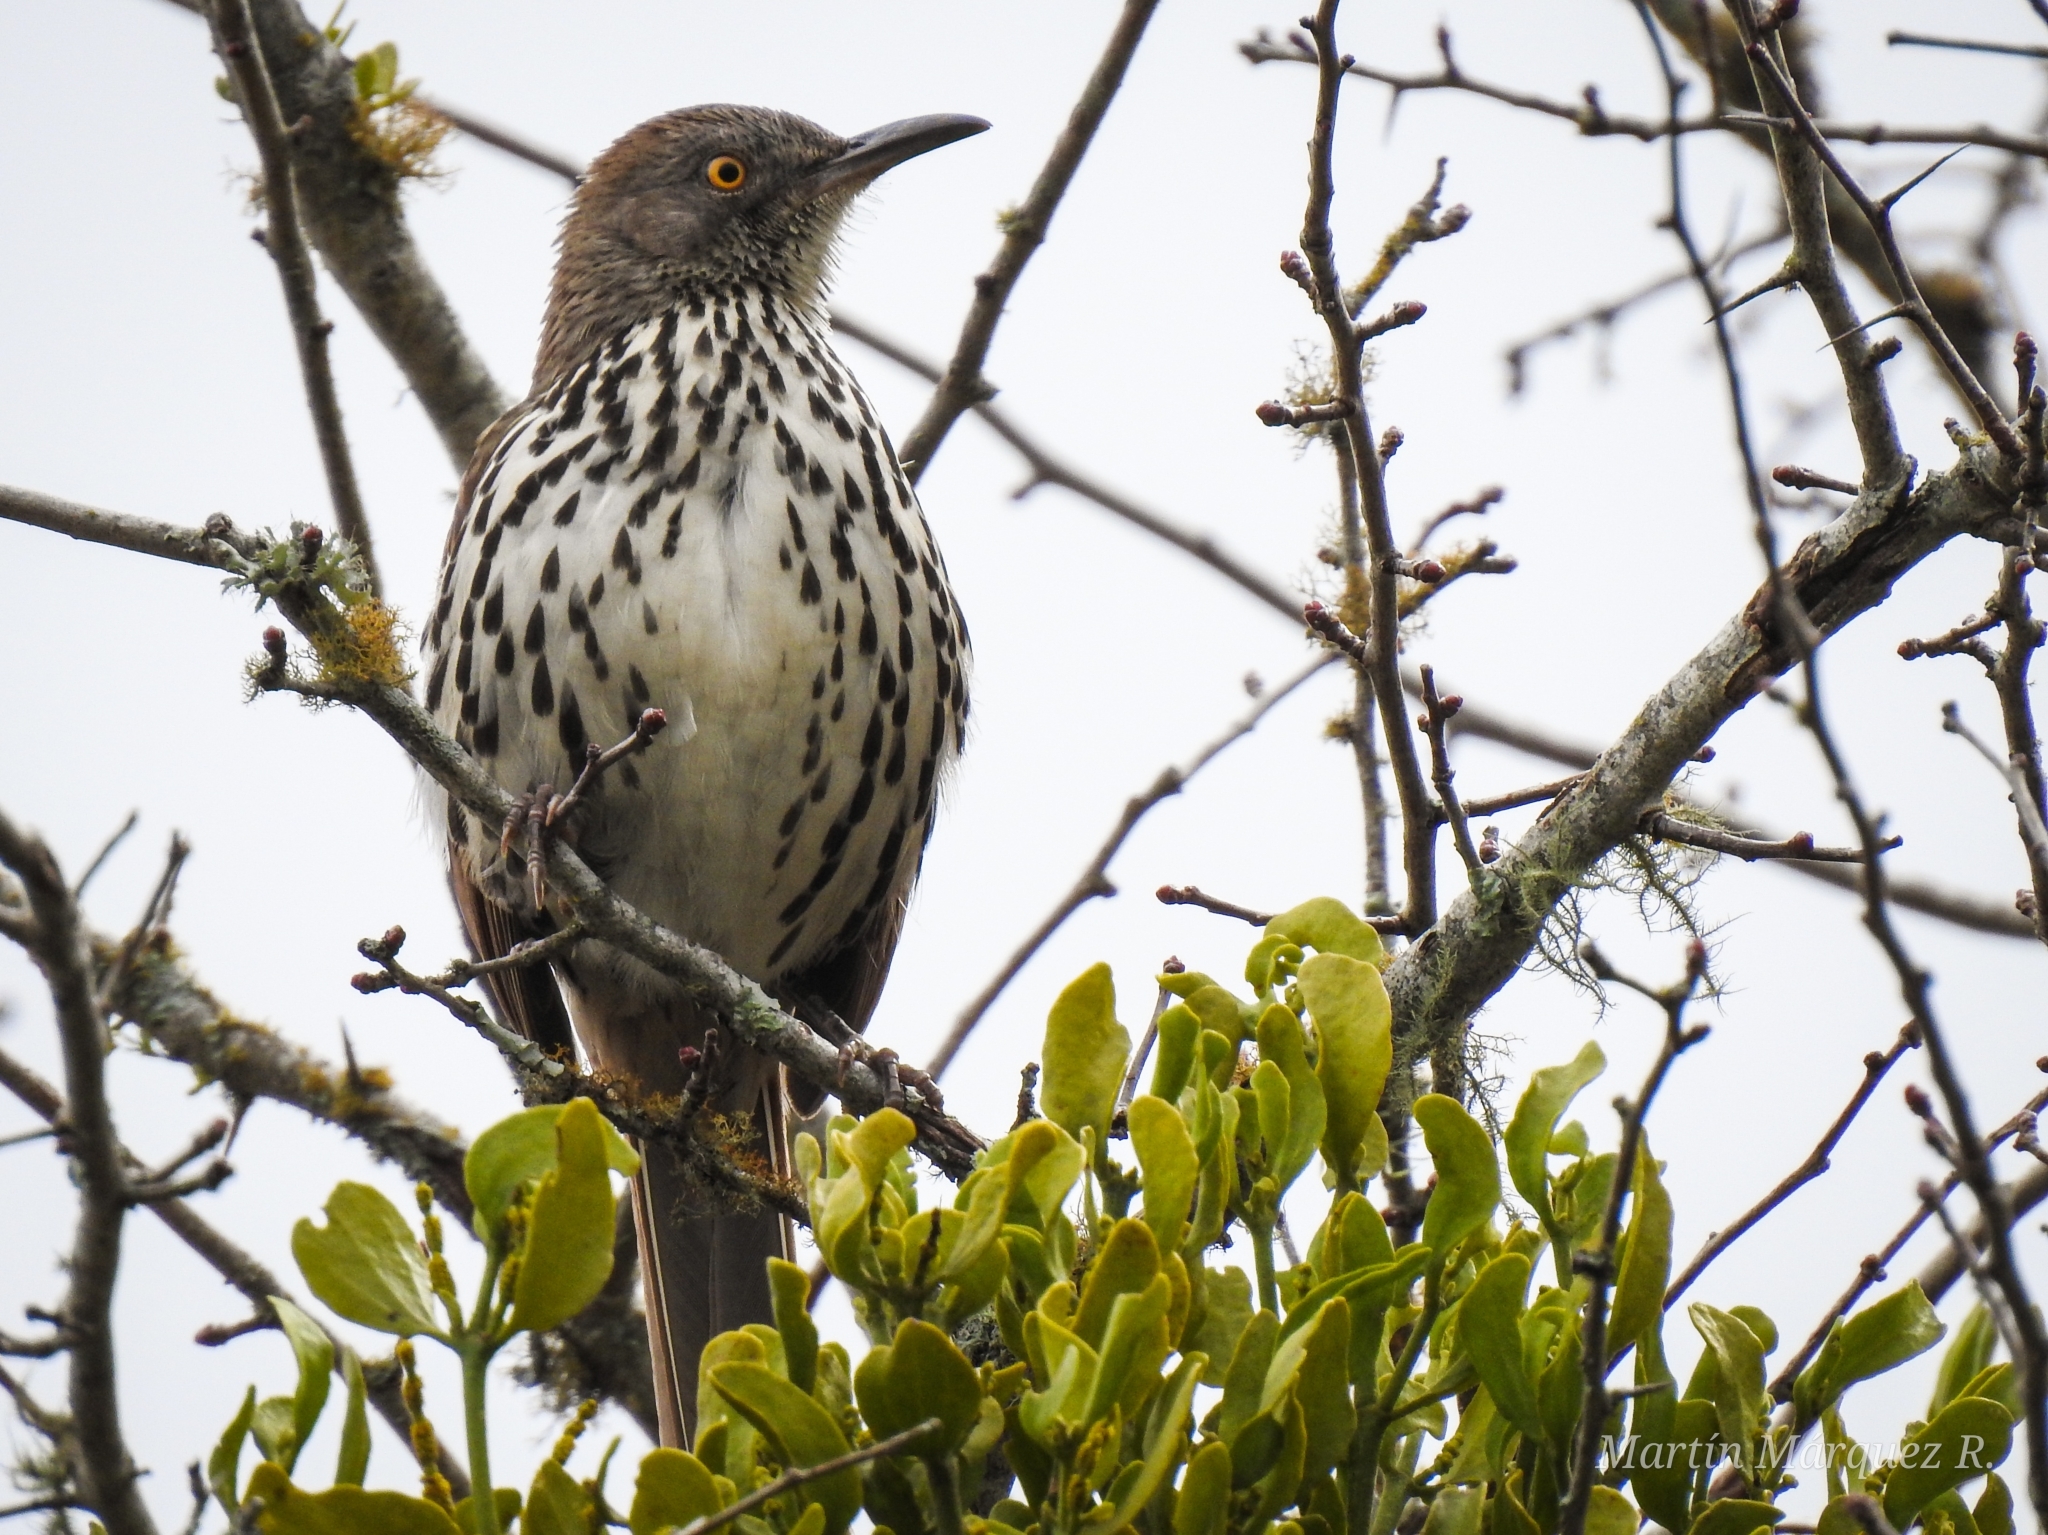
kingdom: Animalia
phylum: Chordata
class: Aves
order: Passeriformes
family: Mimidae
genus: Toxostoma
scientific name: Toxostoma longirostre
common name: Long-billed thrasher
